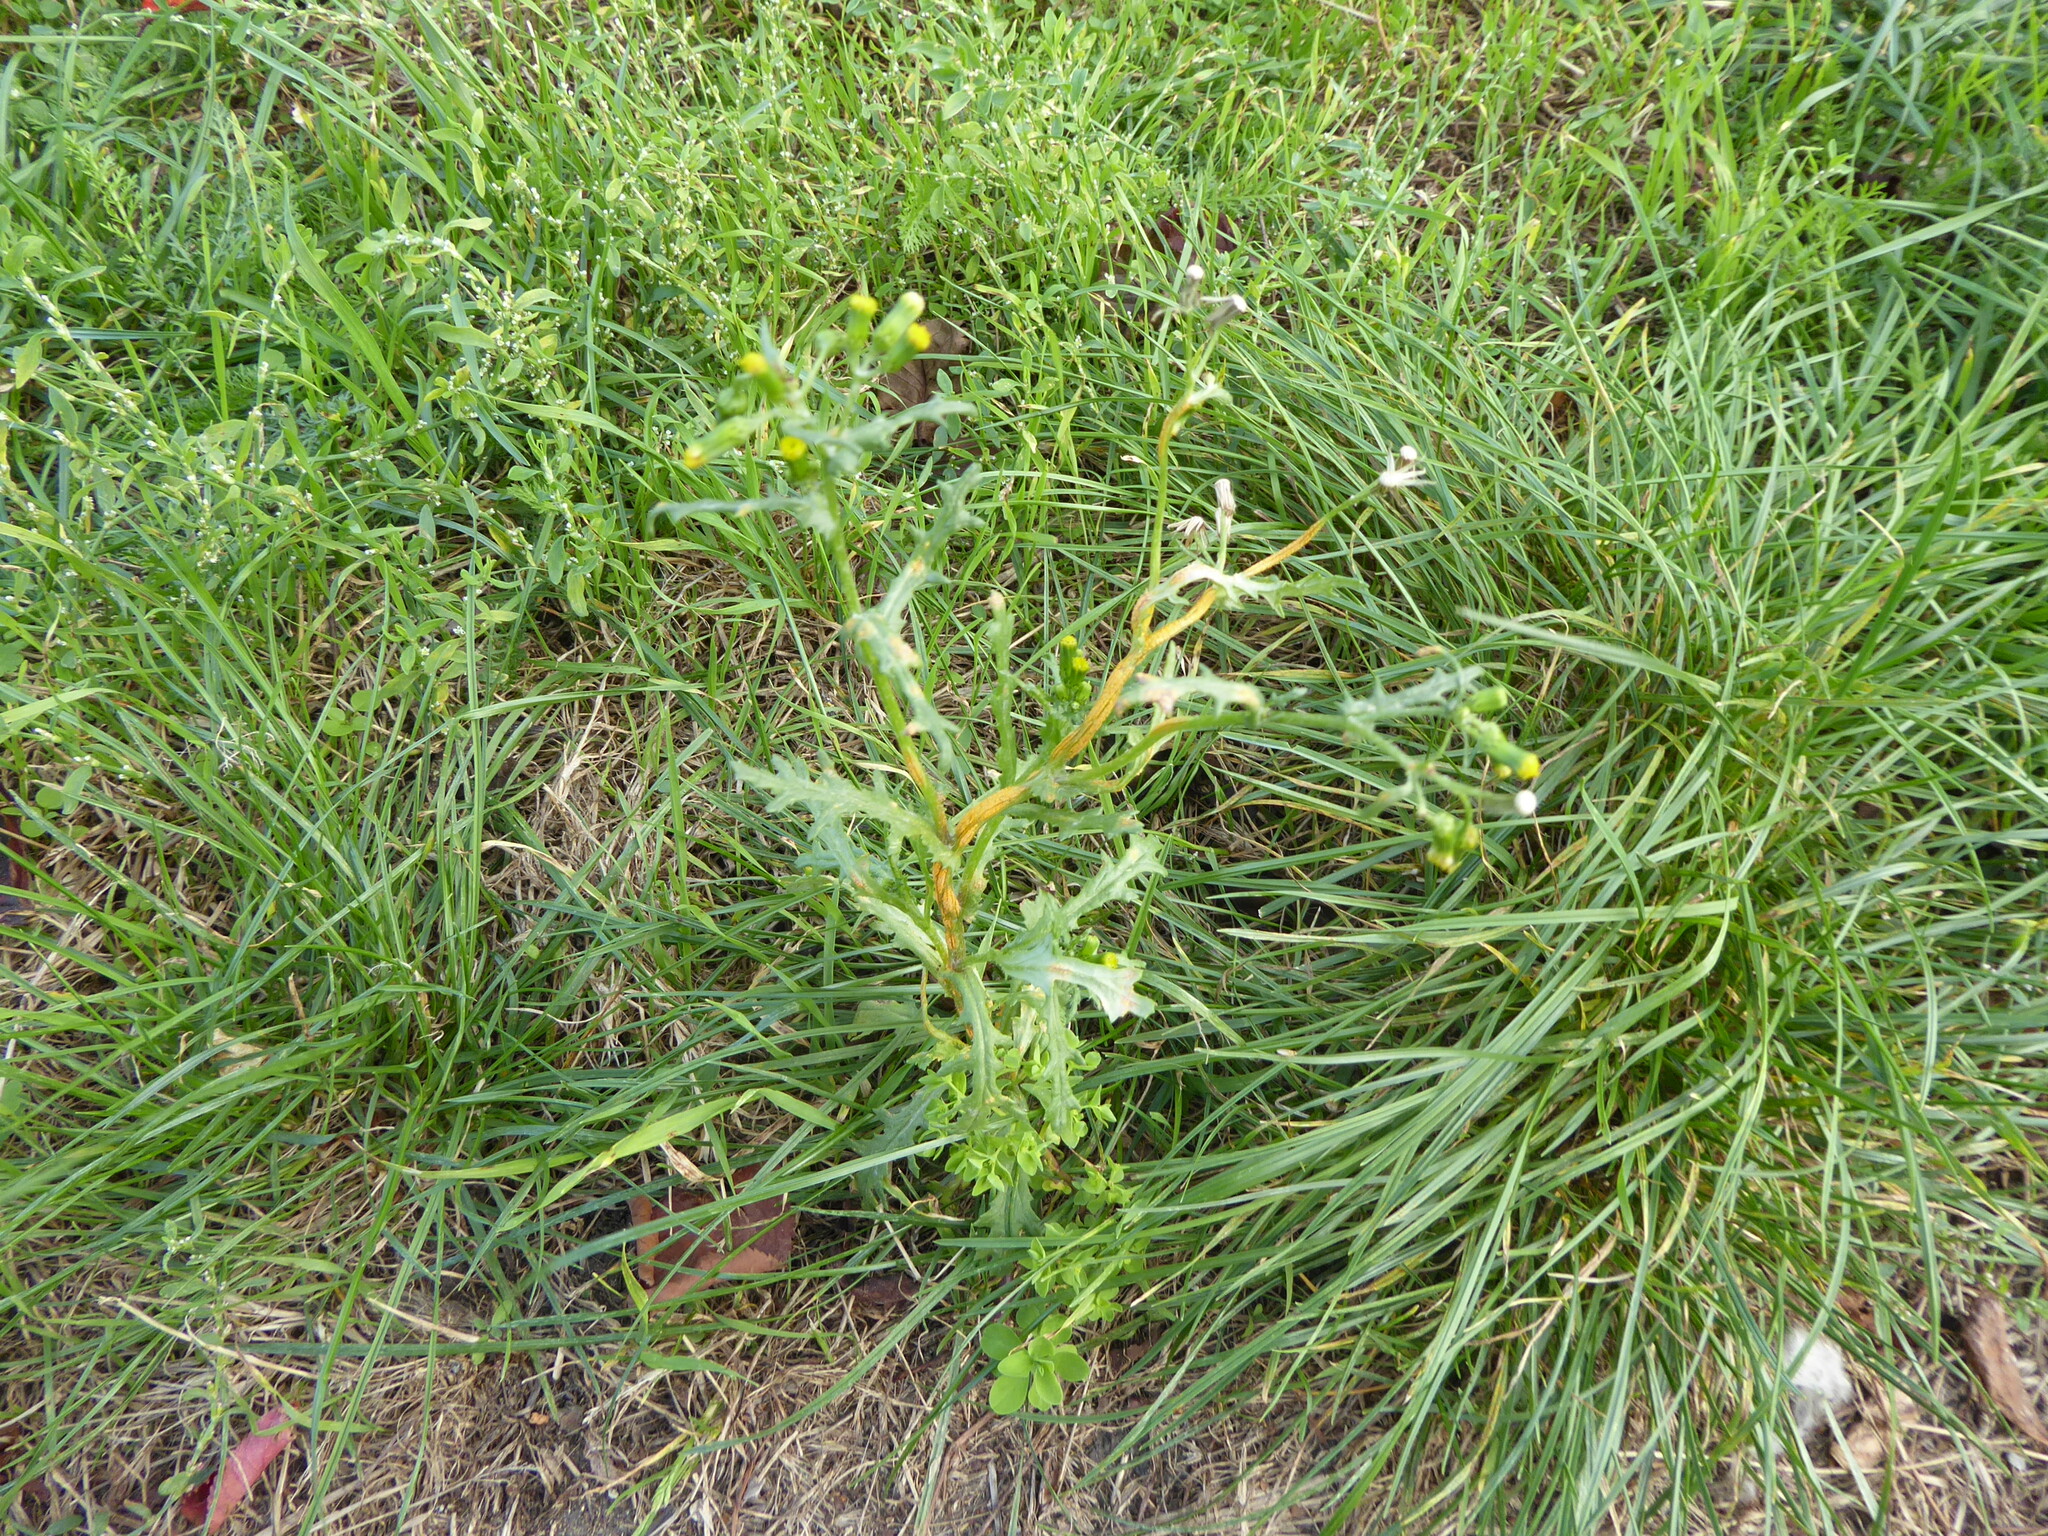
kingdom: Fungi
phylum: Basidiomycota
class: Pucciniomycetes
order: Pucciniales
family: Pucciniaceae
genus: Puccinia
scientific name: Puccinia lagenophorae
